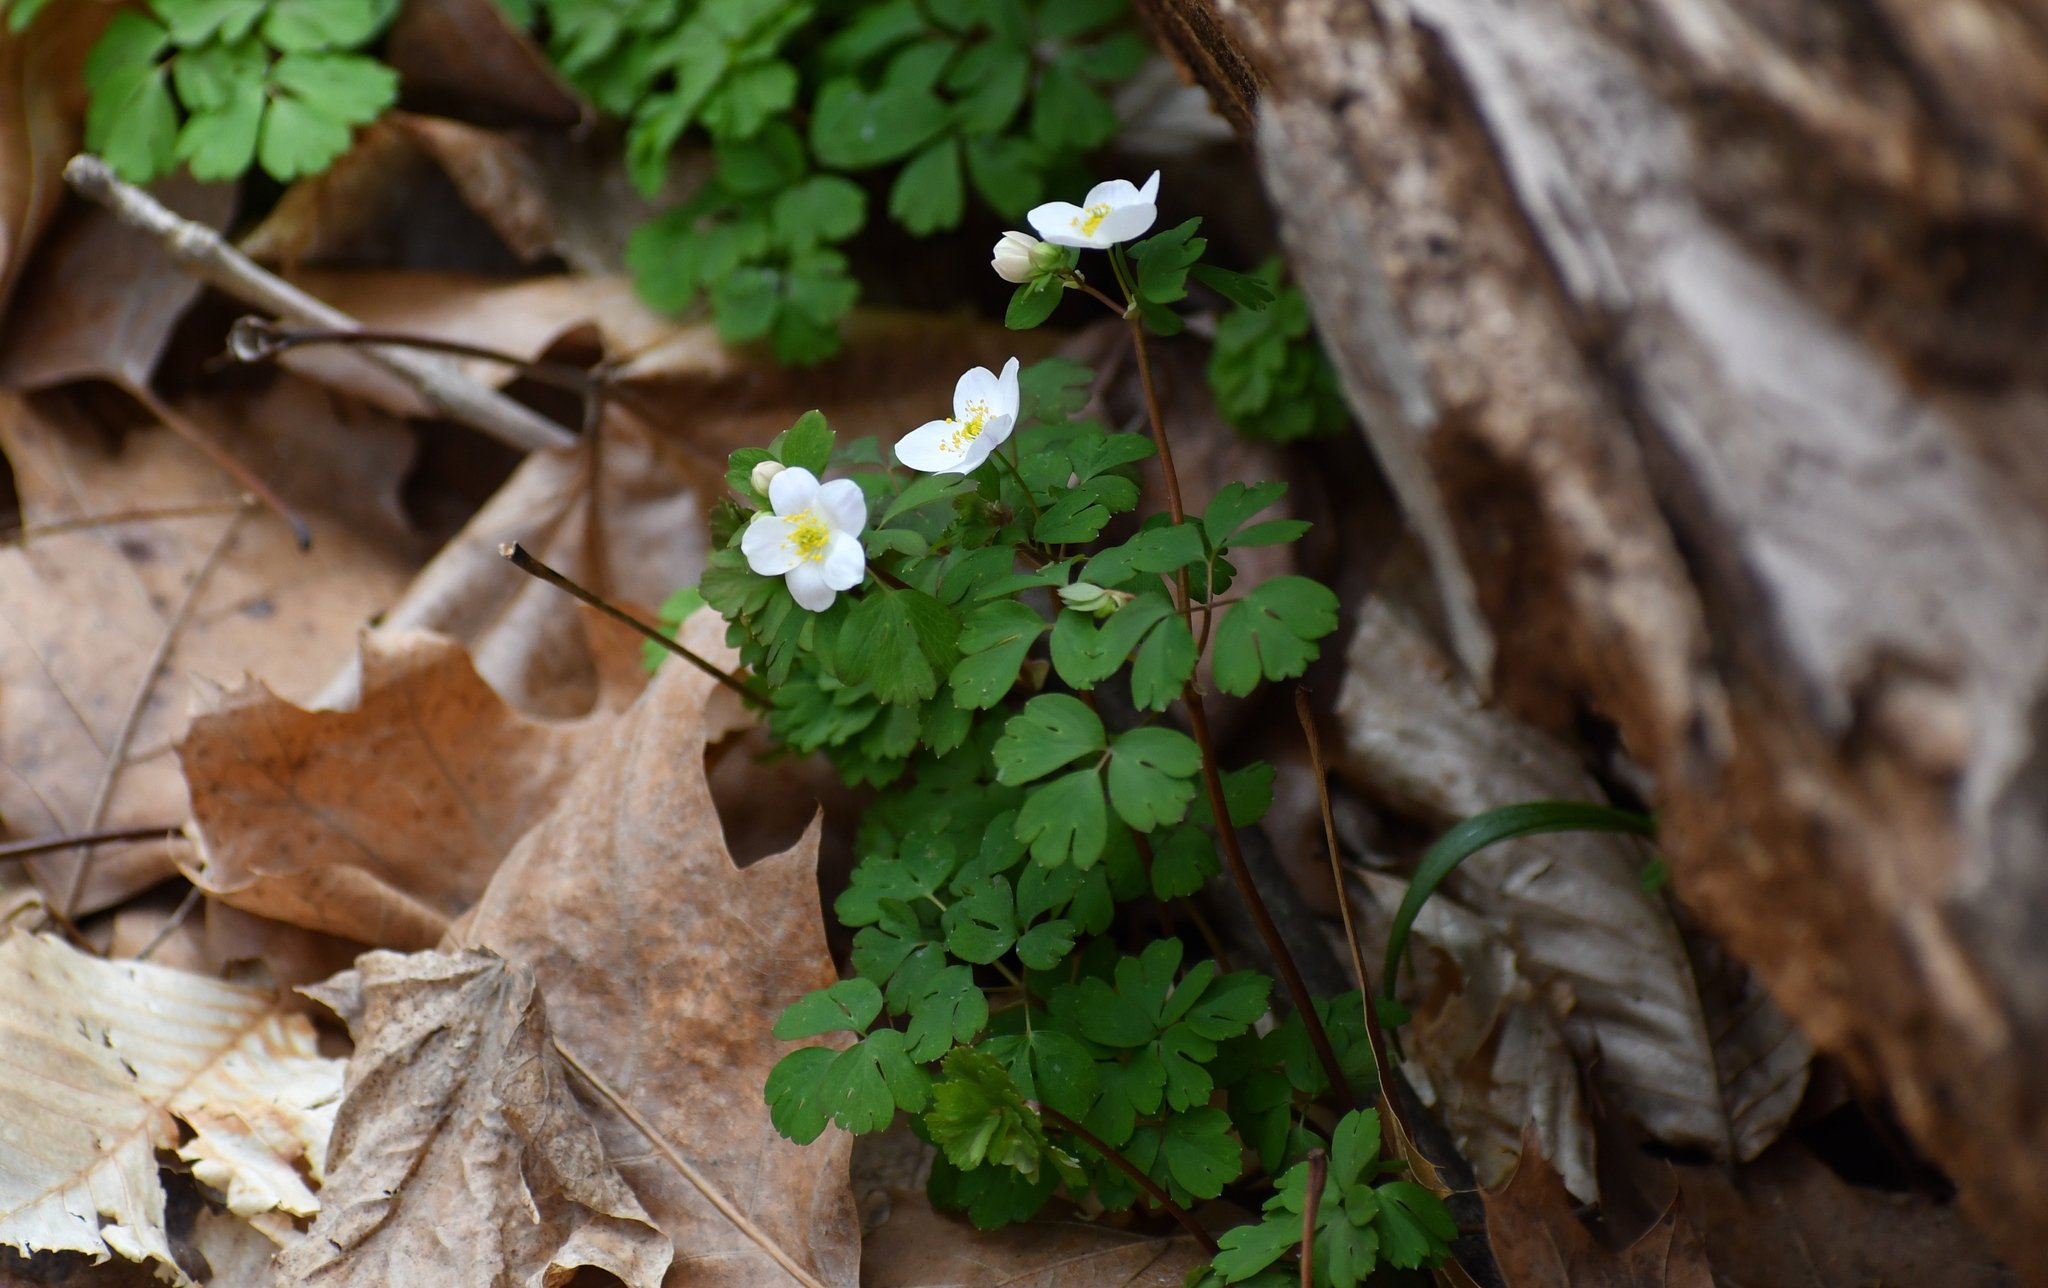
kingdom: Plantae
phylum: Tracheophyta
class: Magnoliopsida
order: Ranunculales
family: Ranunculaceae
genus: Enemion
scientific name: Enemion biternatum
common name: Eastern false rue-anemone
